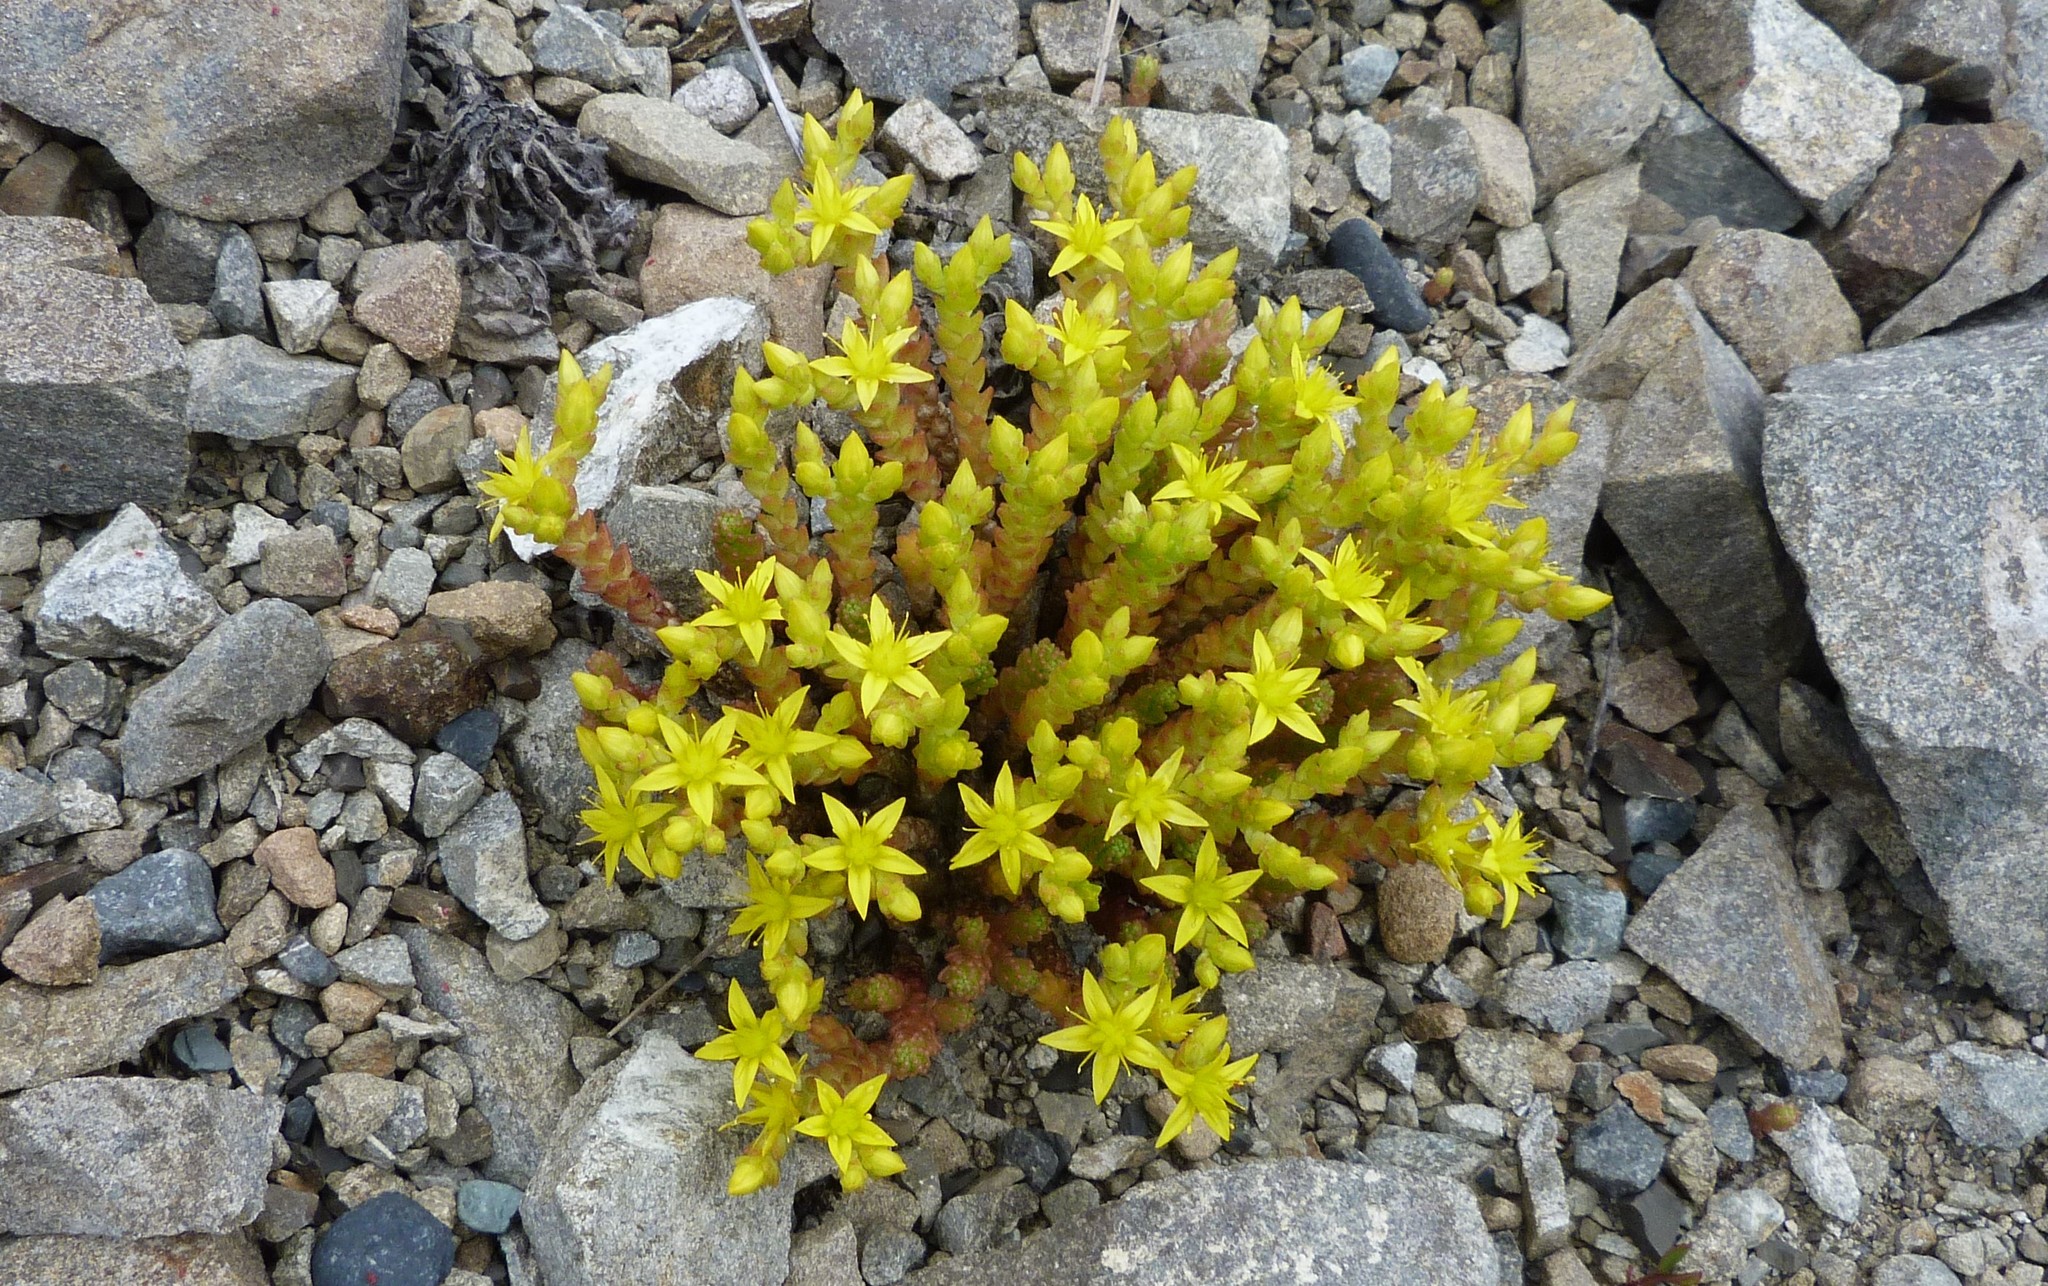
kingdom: Plantae
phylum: Tracheophyta
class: Magnoliopsida
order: Saxifragales
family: Crassulaceae
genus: Sedum
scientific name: Sedum acre
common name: Biting stonecrop
